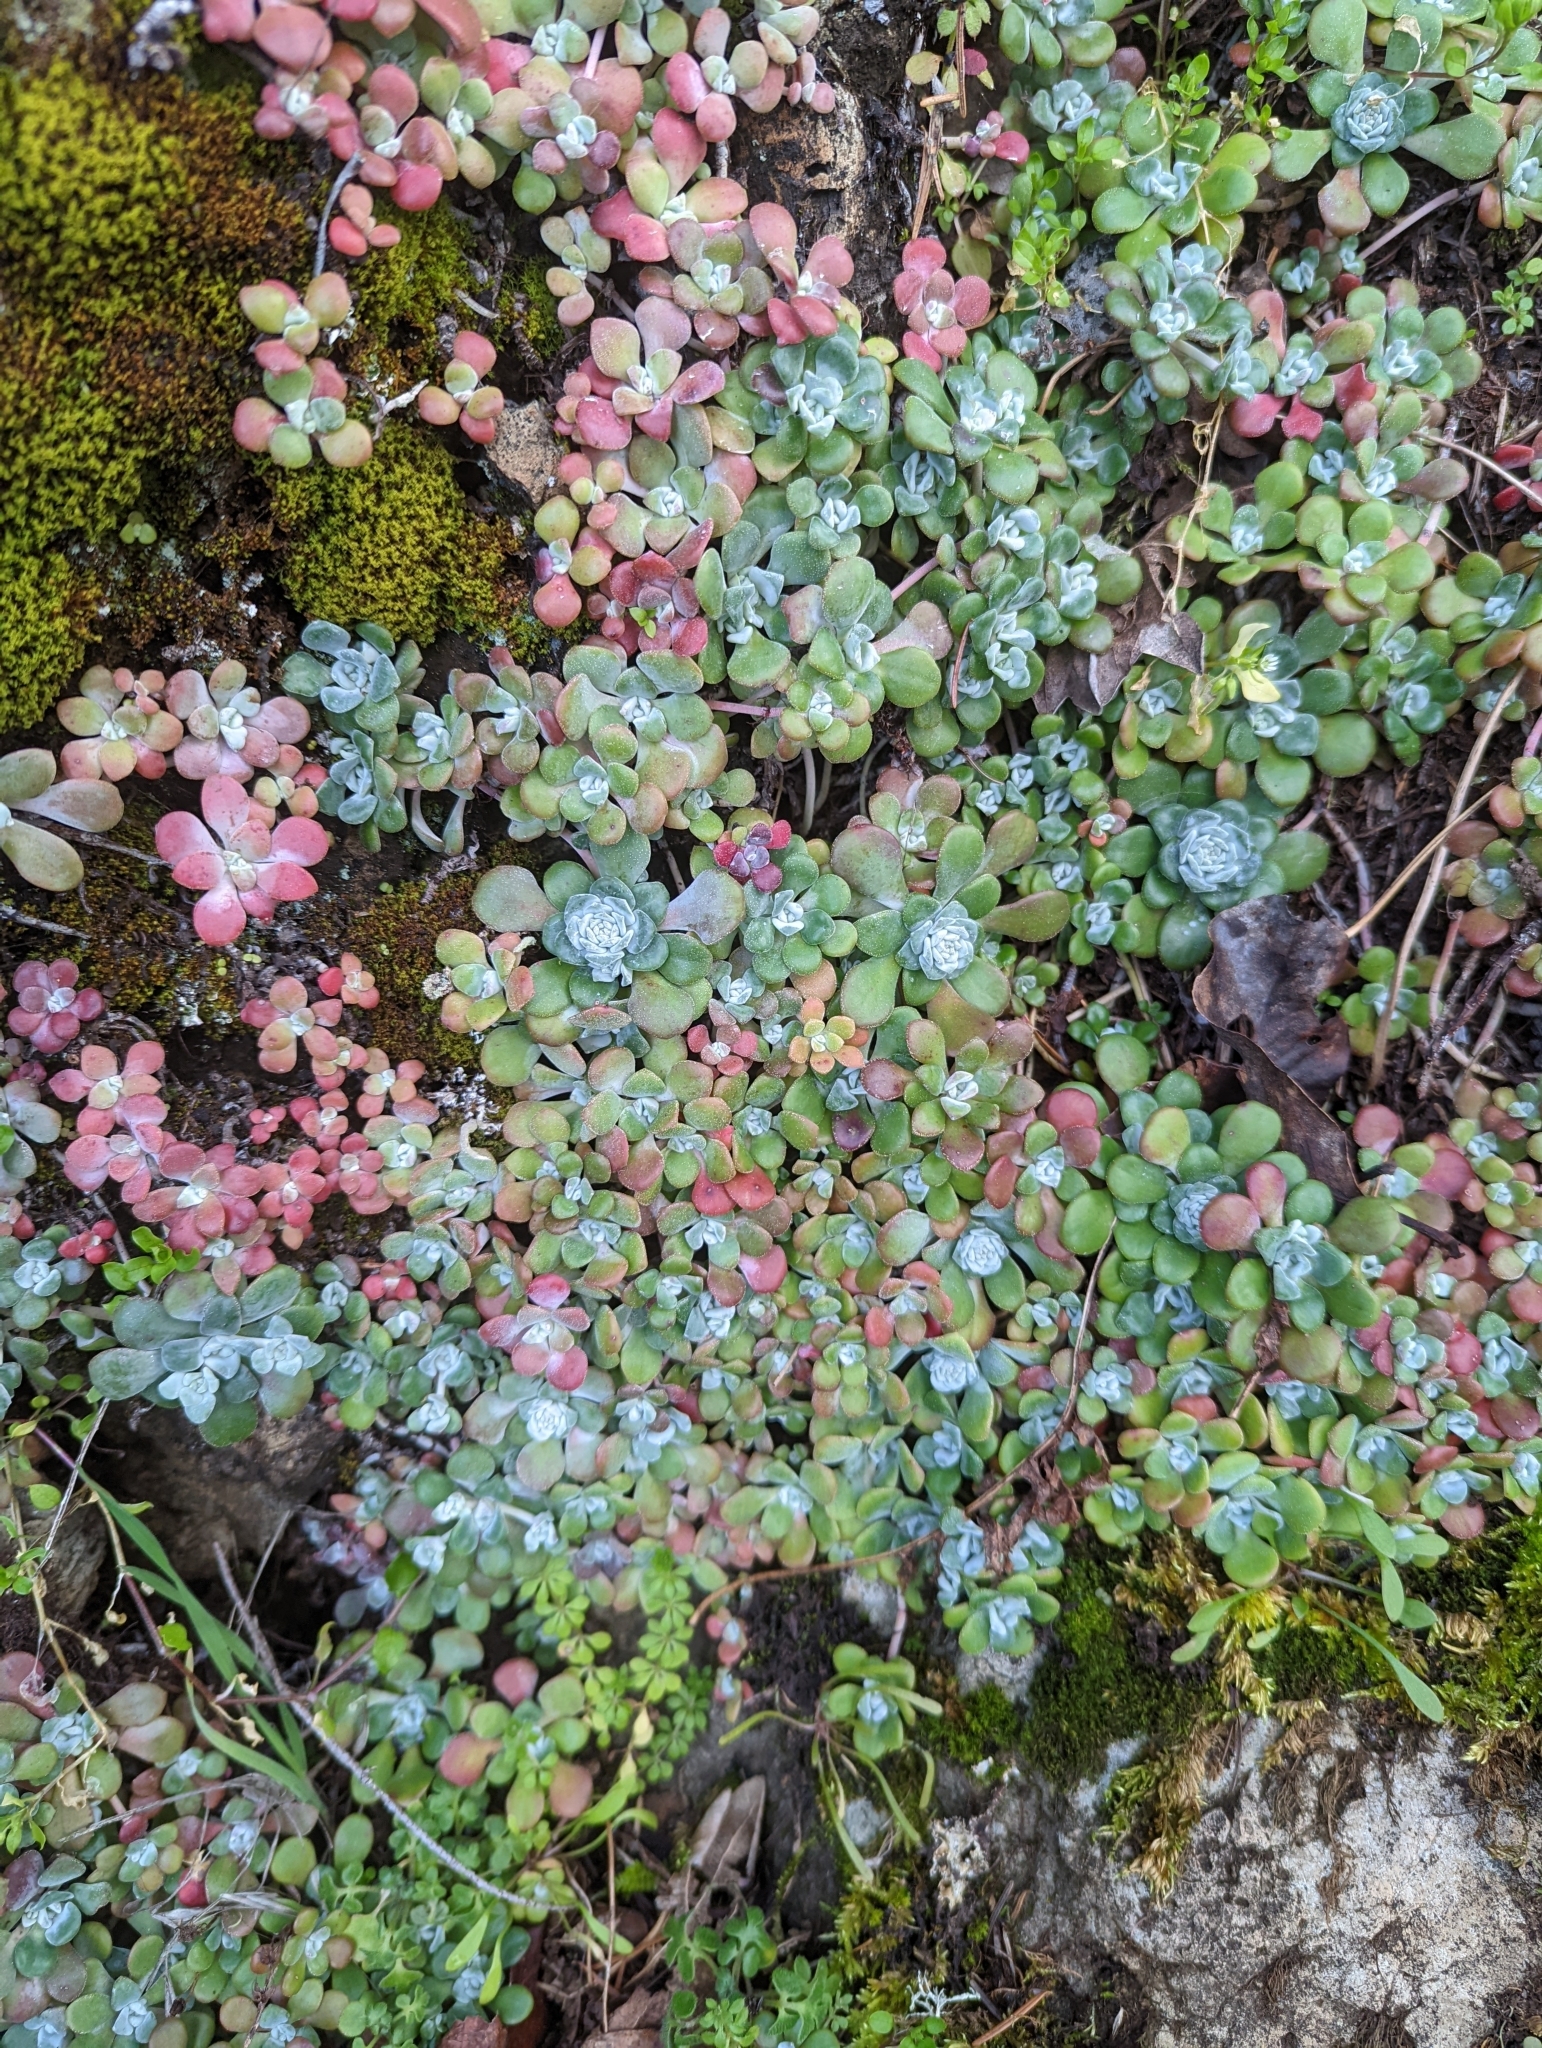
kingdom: Plantae
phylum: Tracheophyta
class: Magnoliopsida
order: Saxifragales
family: Crassulaceae
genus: Sedum
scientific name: Sedum spathulifolium
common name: Colorado stonecrop
